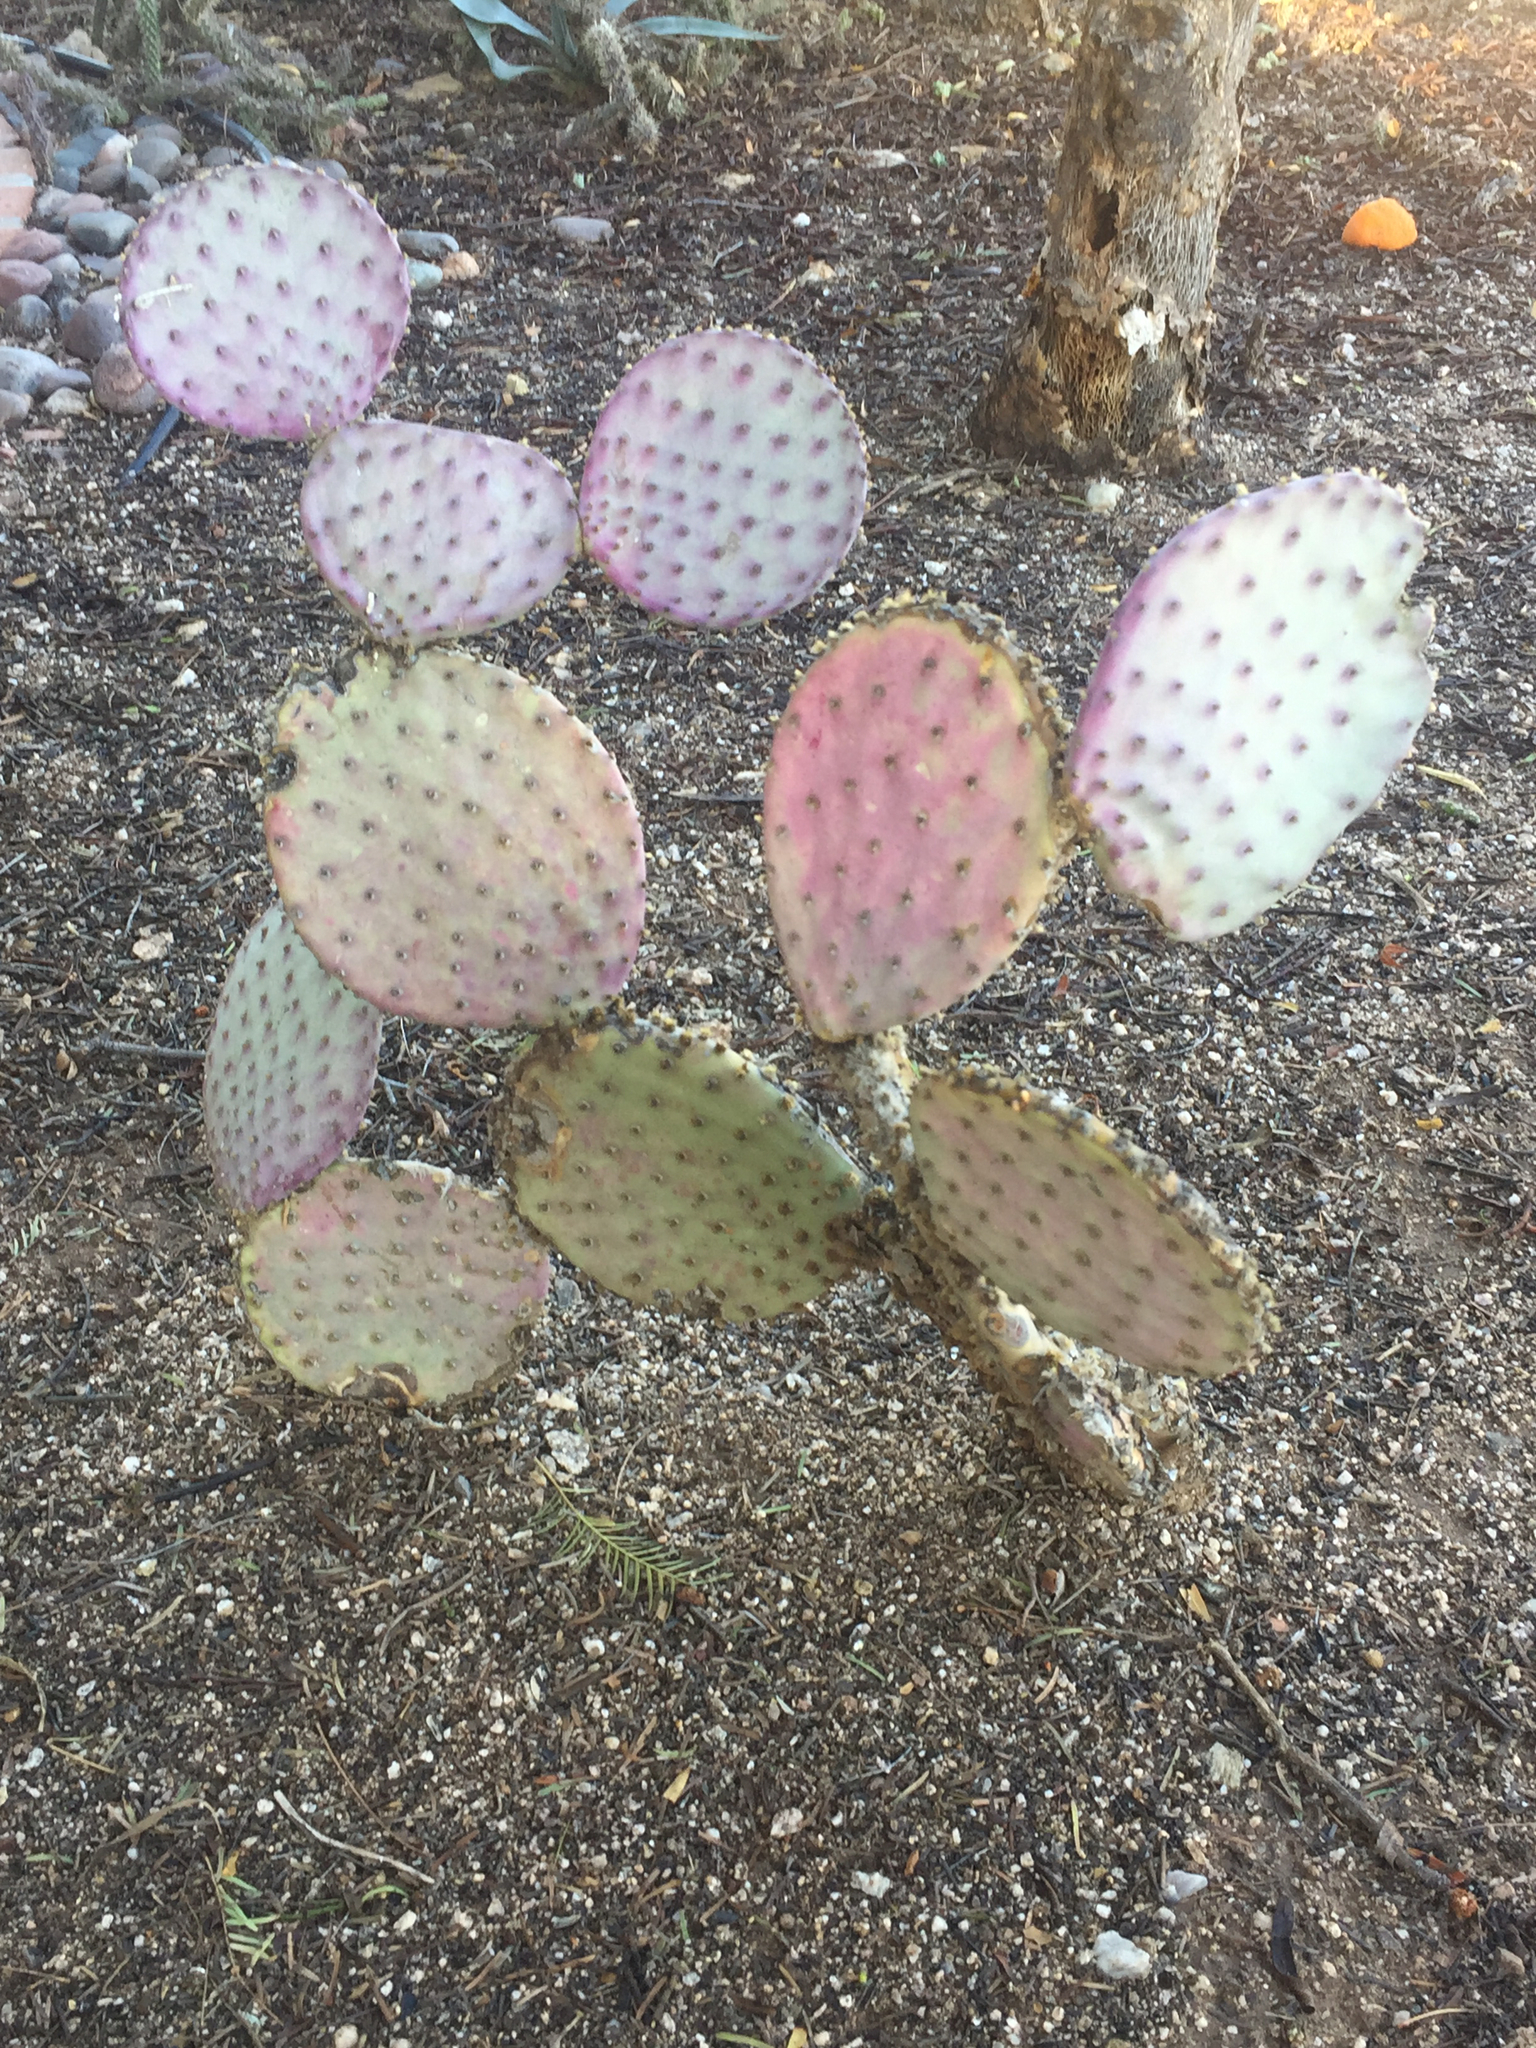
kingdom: Plantae
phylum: Tracheophyta
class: Magnoliopsida
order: Caryophyllales
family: Cactaceae
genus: Opuntia
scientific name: Opuntia gosseliniana
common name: Violet prickly-pear
